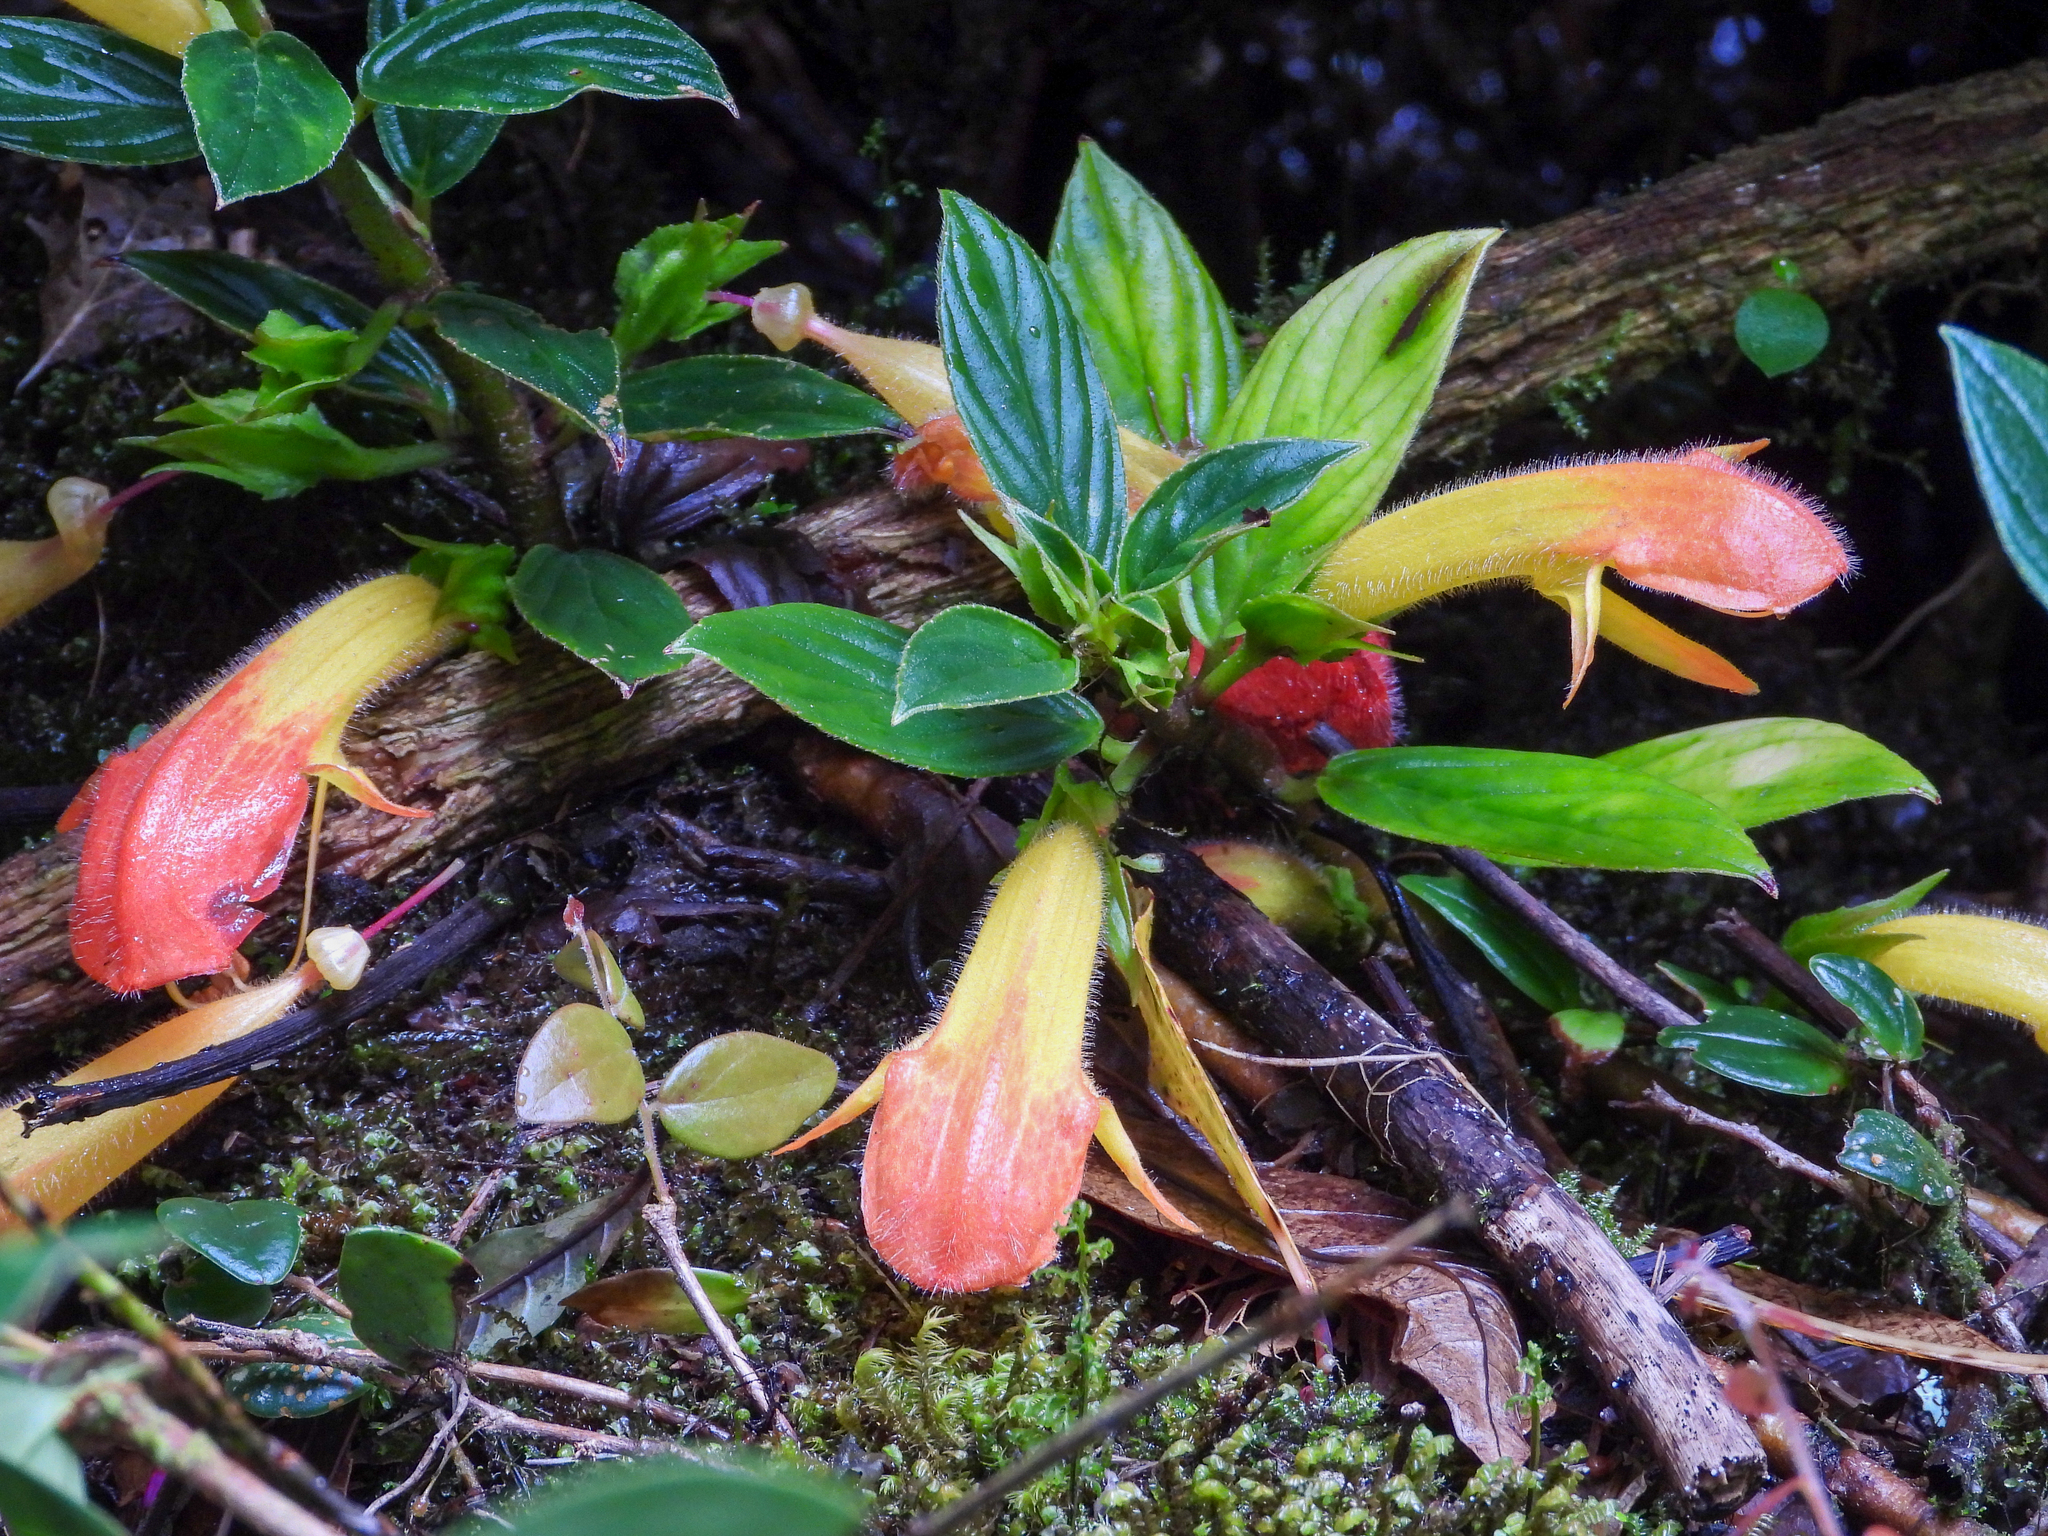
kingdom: Plantae
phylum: Tracheophyta
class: Magnoliopsida
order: Lamiales
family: Gesneriaceae
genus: Columnea
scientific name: Columnea magnifica
